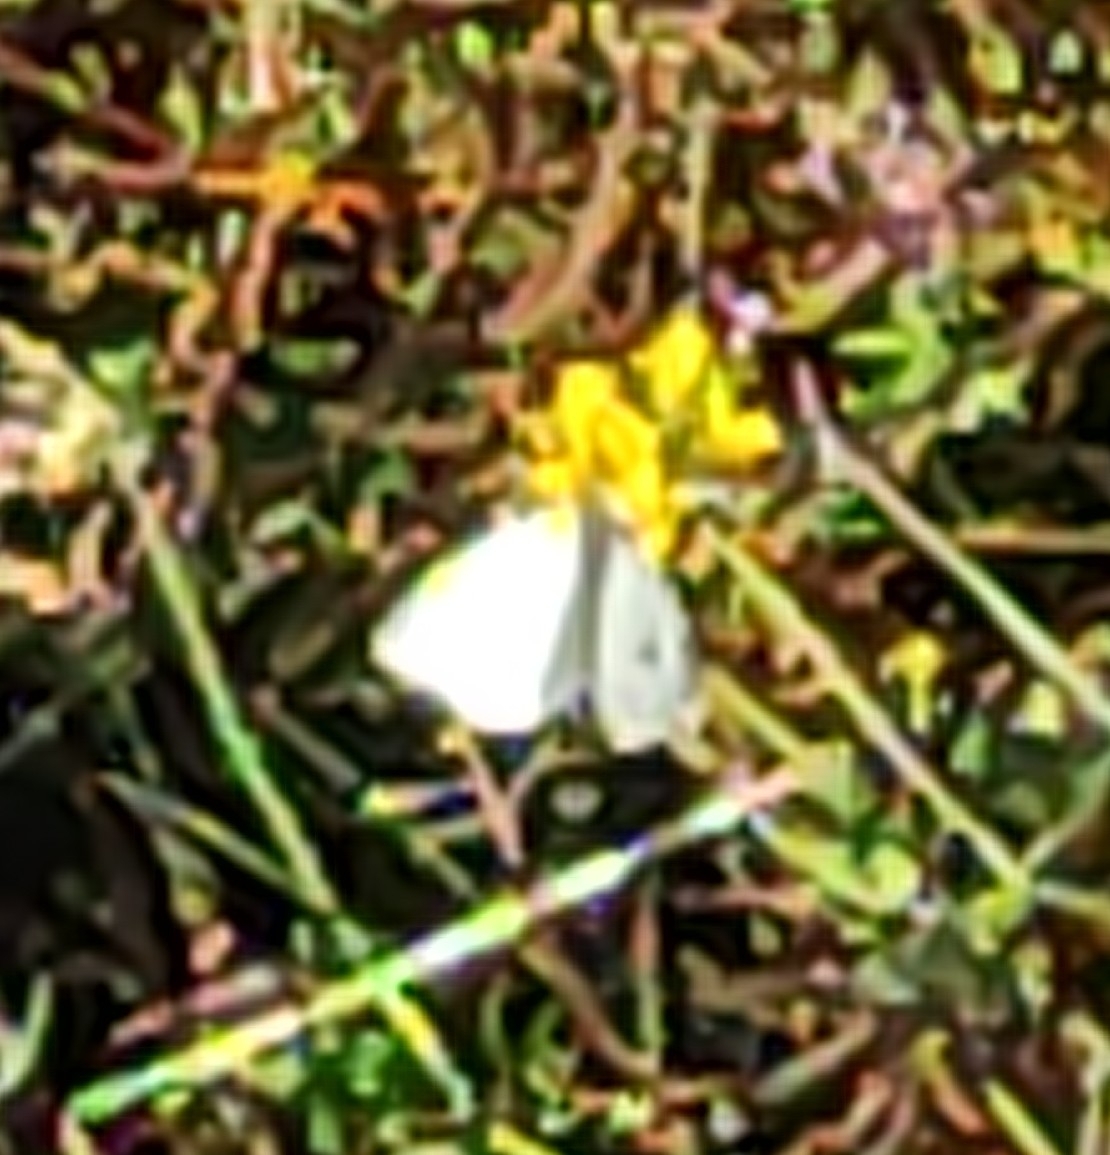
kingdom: Animalia
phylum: Arthropoda
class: Insecta
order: Lepidoptera
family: Pieridae
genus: Pieris
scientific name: Pieris rapae
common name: Small white
